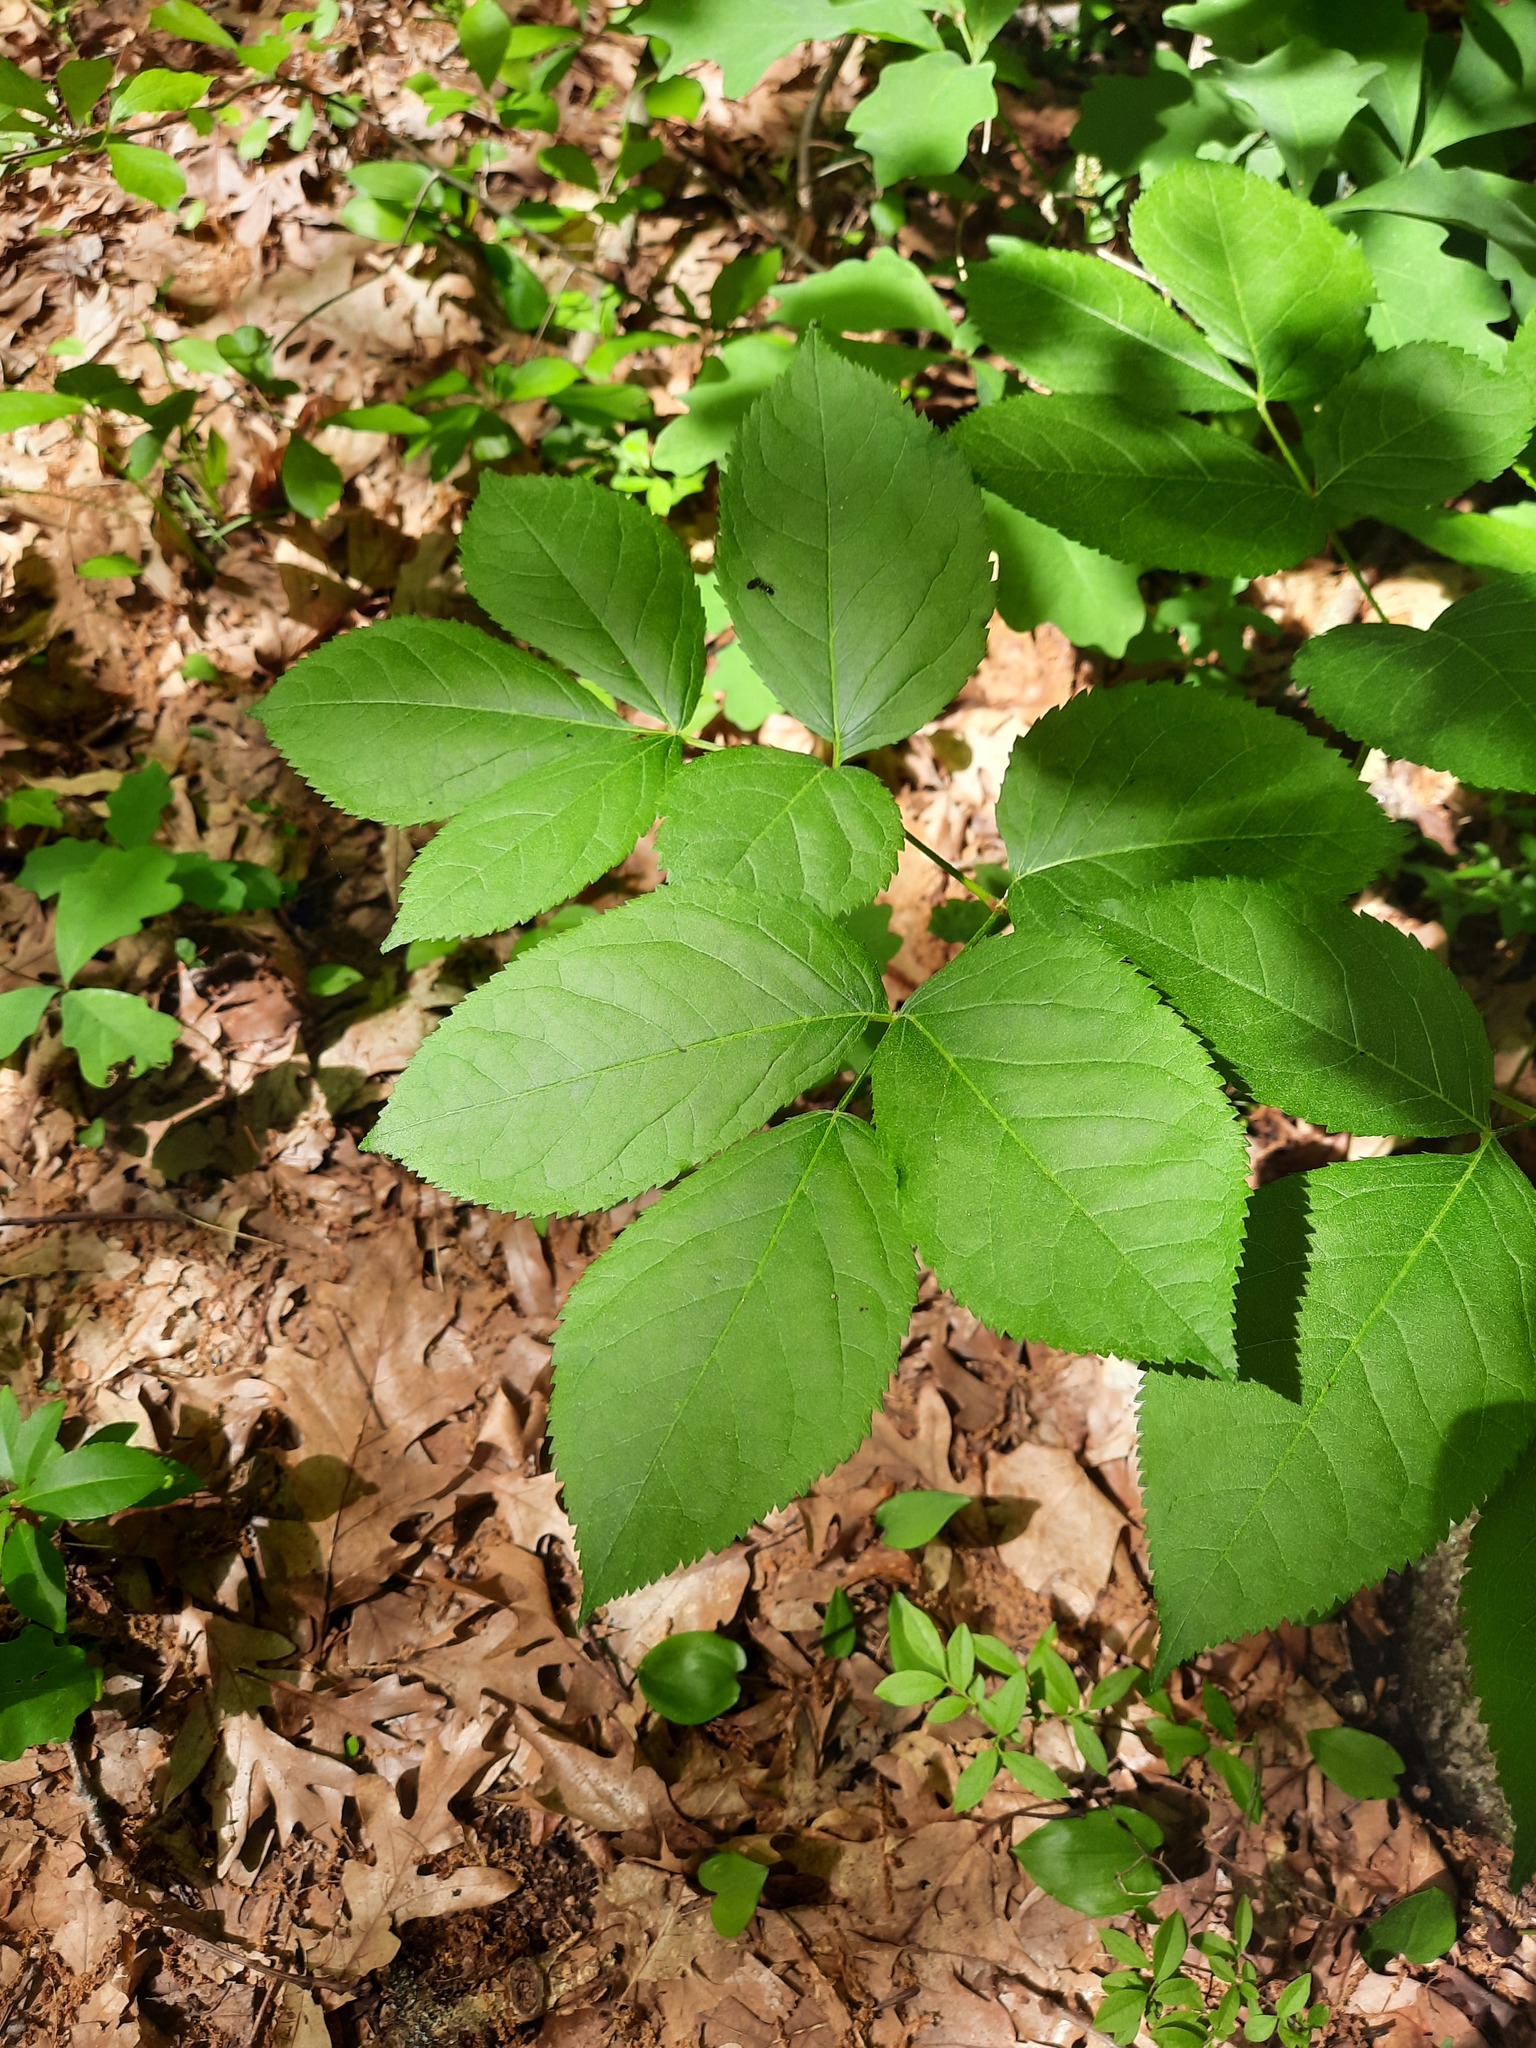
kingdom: Plantae
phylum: Tracheophyta
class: Magnoliopsida
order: Apiales
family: Araliaceae
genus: Aralia
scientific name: Aralia nudicaulis
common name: Wild sarsaparilla
